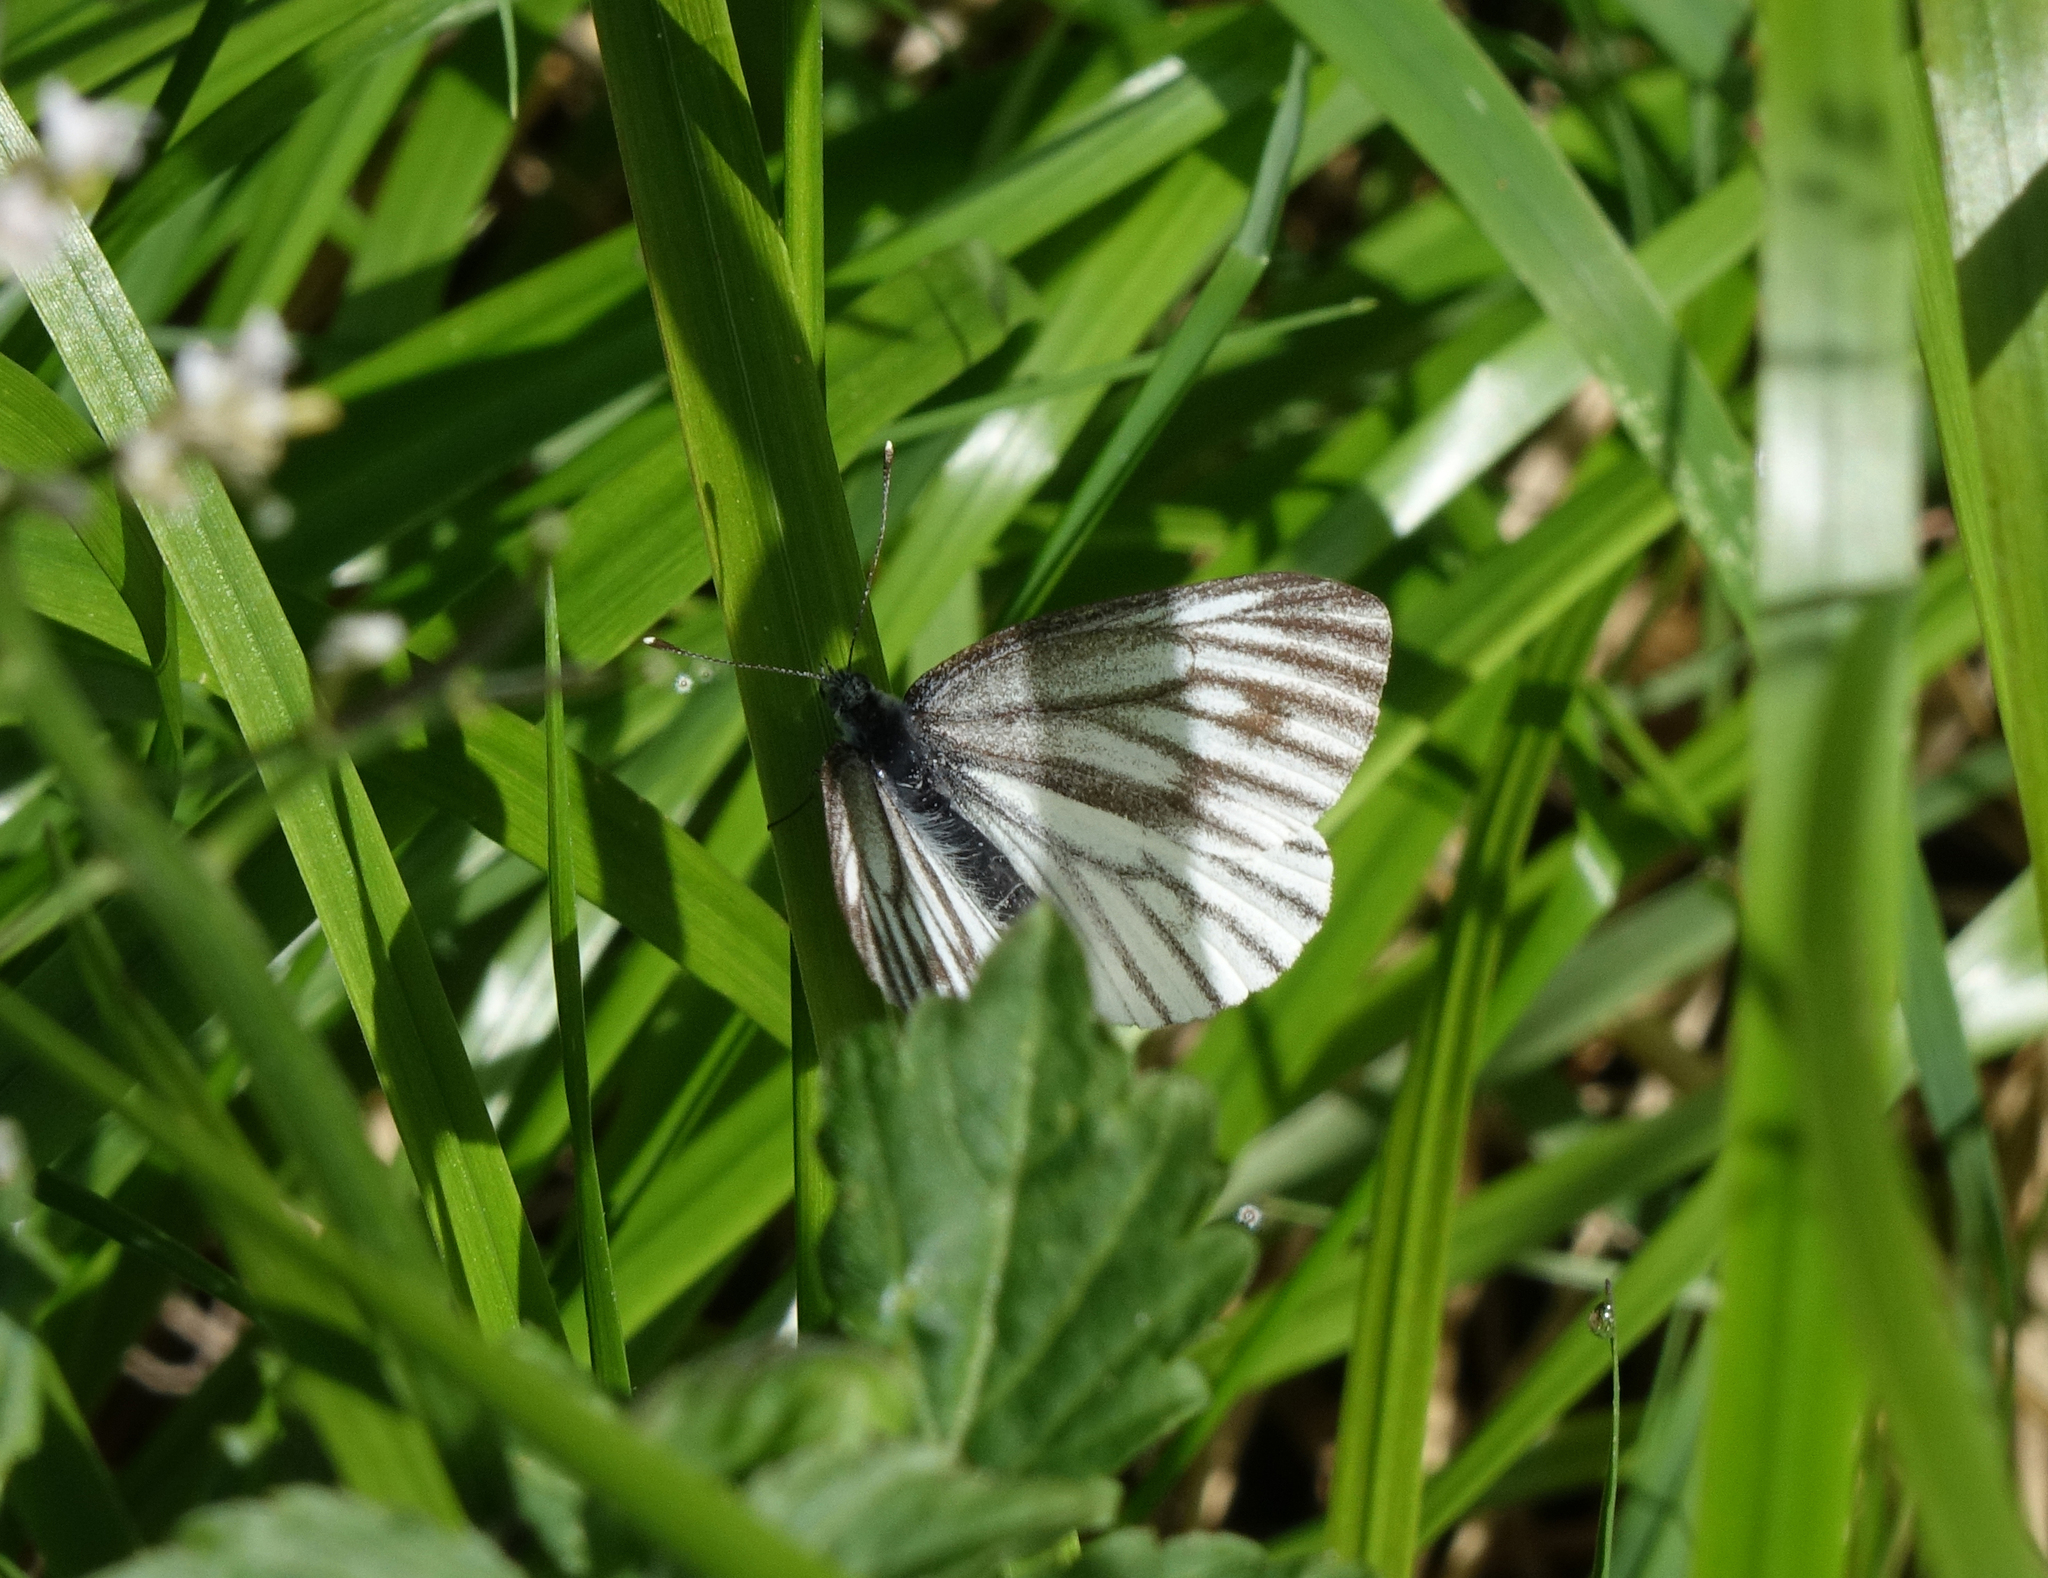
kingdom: Animalia
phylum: Arthropoda
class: Insecta
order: Lepidoptera
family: Pieridae
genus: Pieris
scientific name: Pieris napi
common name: Green-veined white
